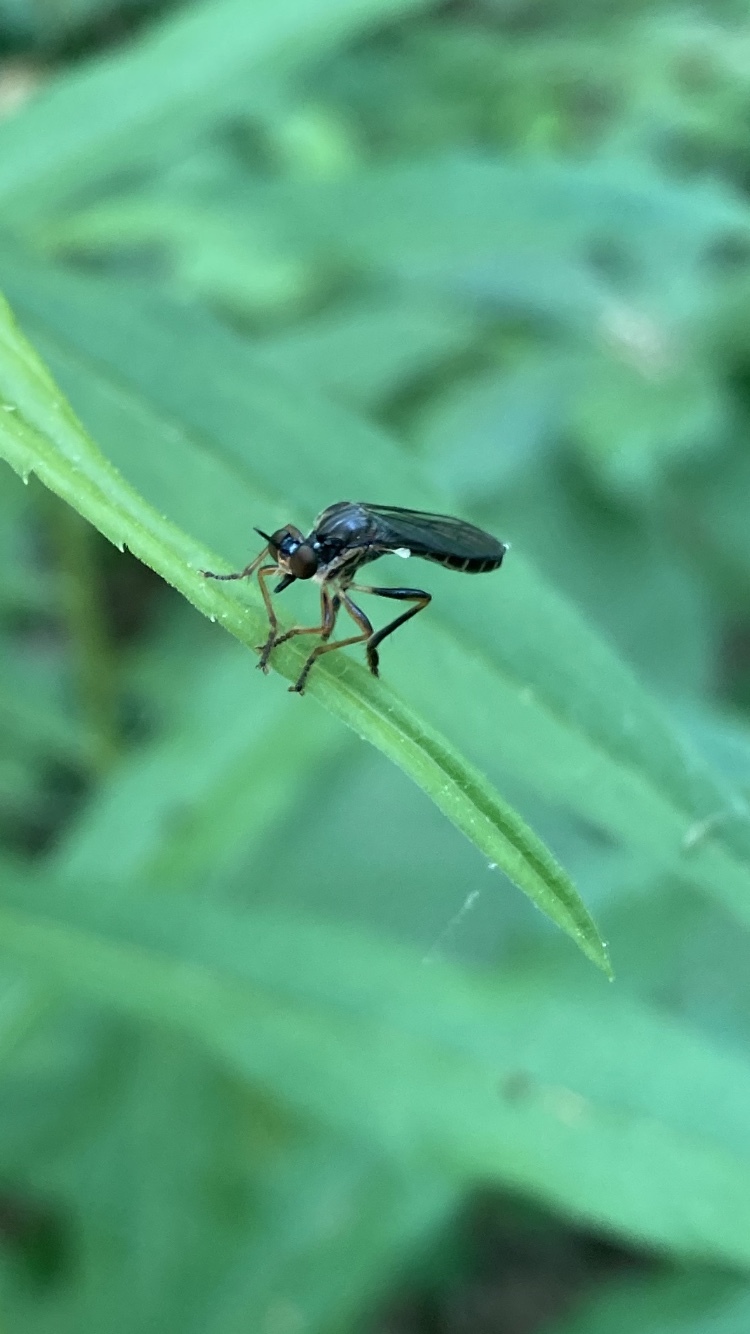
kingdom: Animalia
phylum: Arthropoda
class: Insecta
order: Diptera
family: Asilidae
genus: Dioctria
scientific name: Dioctria hyalipennis
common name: Stripe-legged robberfly
